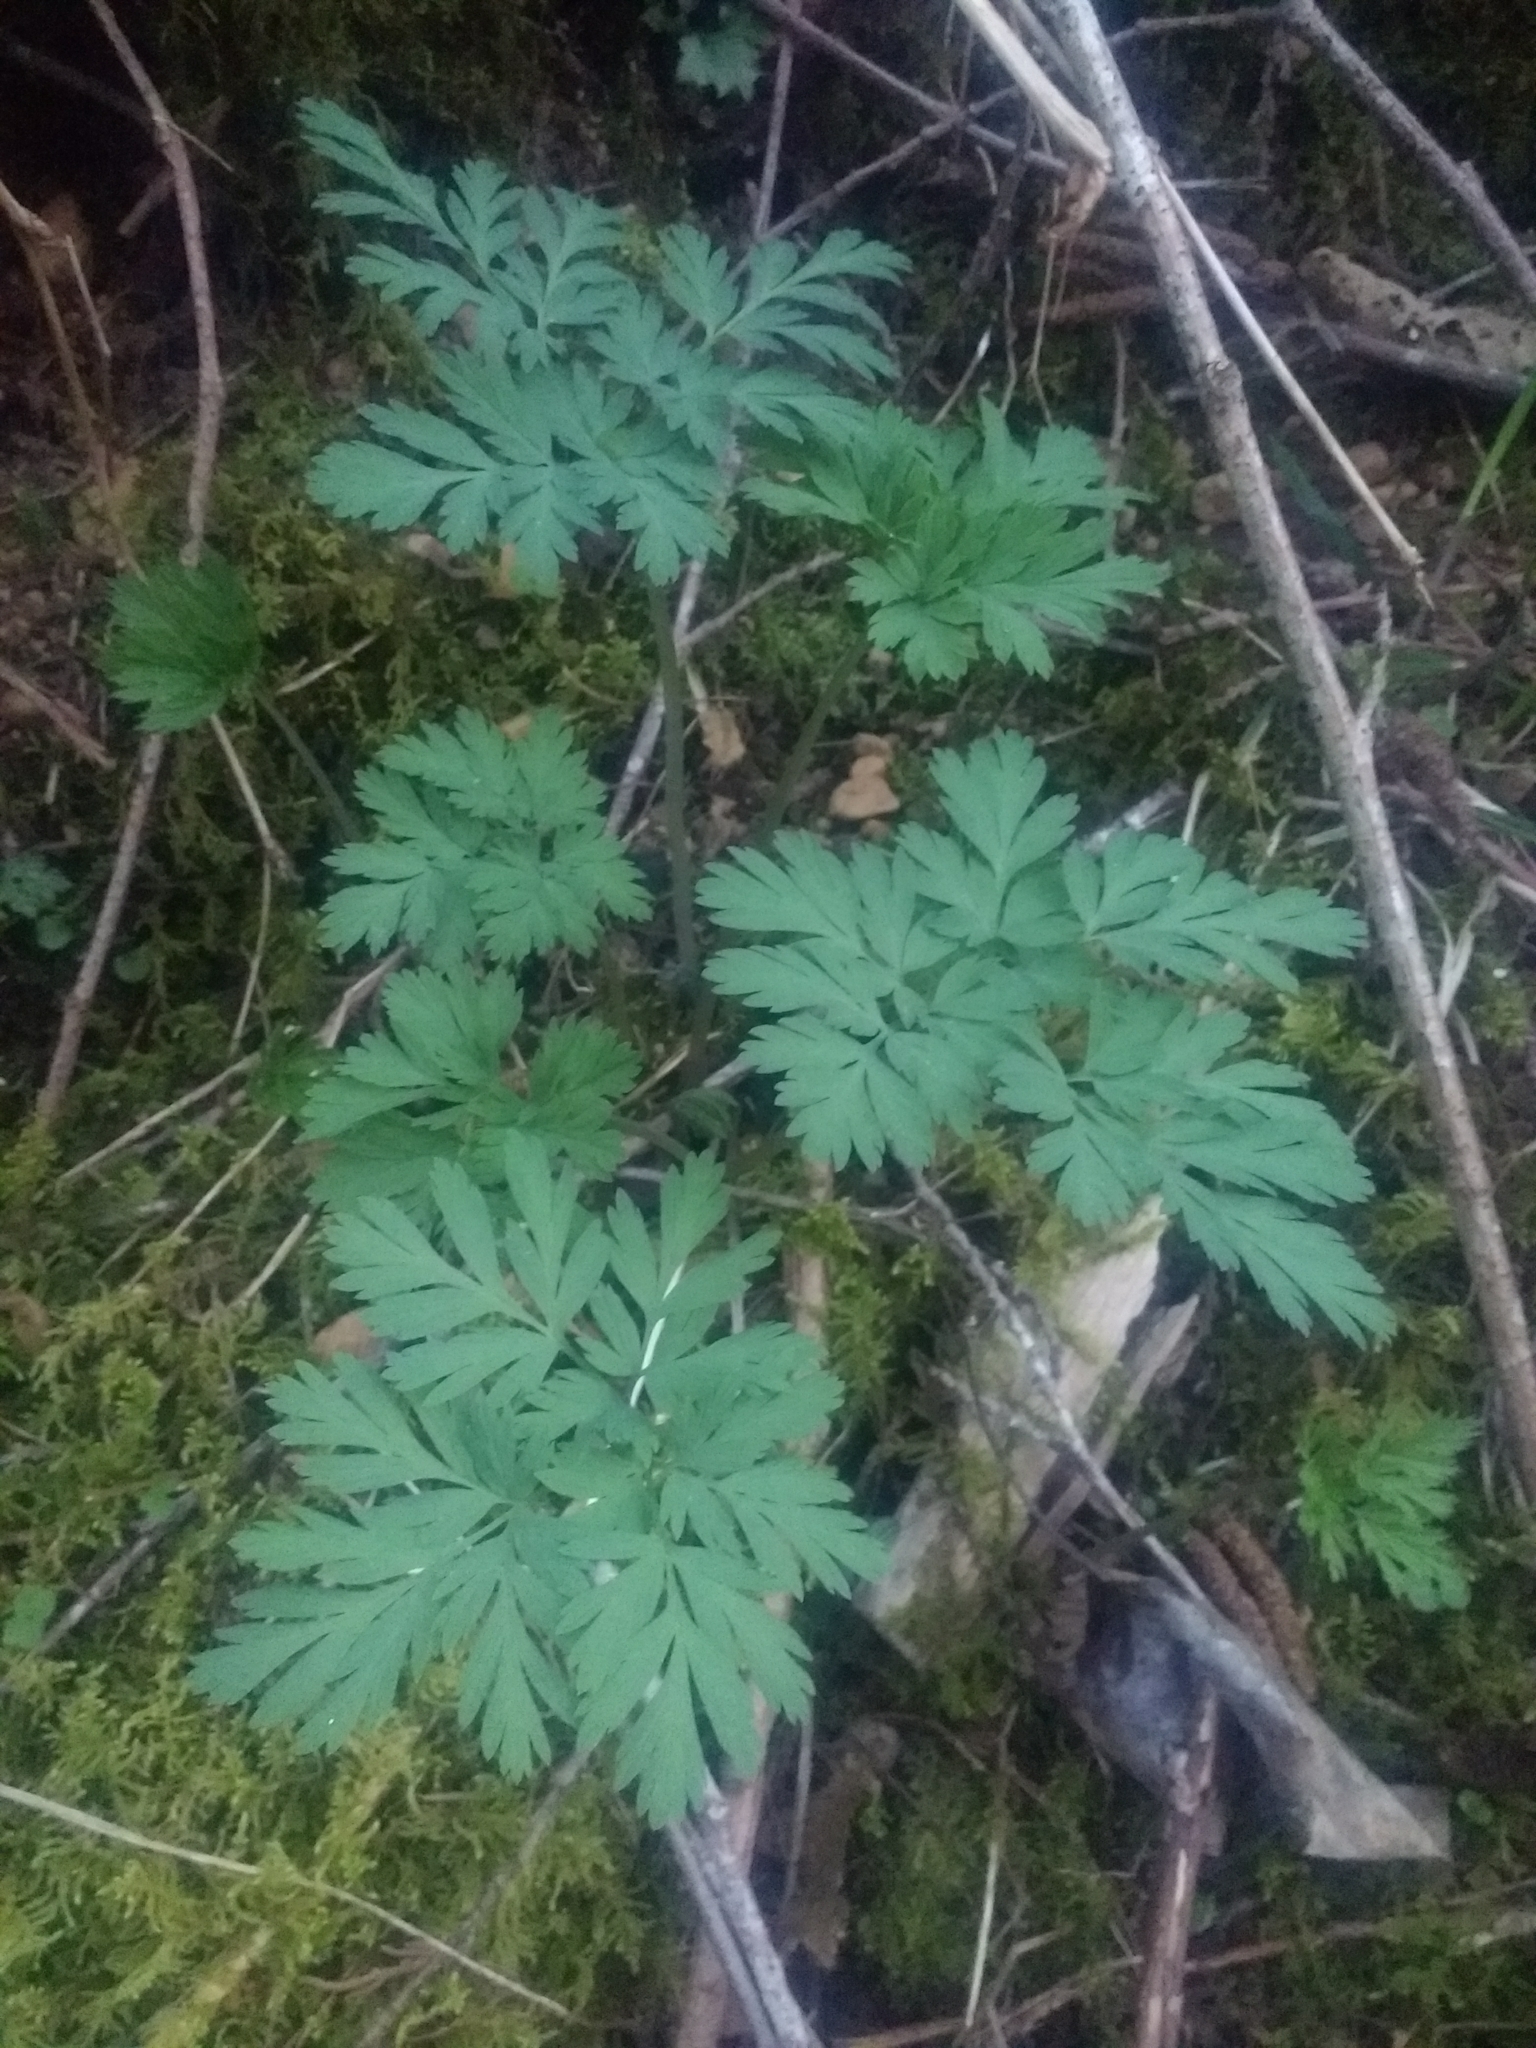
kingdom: Plantae
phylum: Tracheophyta
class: Magnoliopsida
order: Ranunculales
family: Papaveraceae
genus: Dicentra
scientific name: Dicentra formosa
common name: Bleeding-heart
